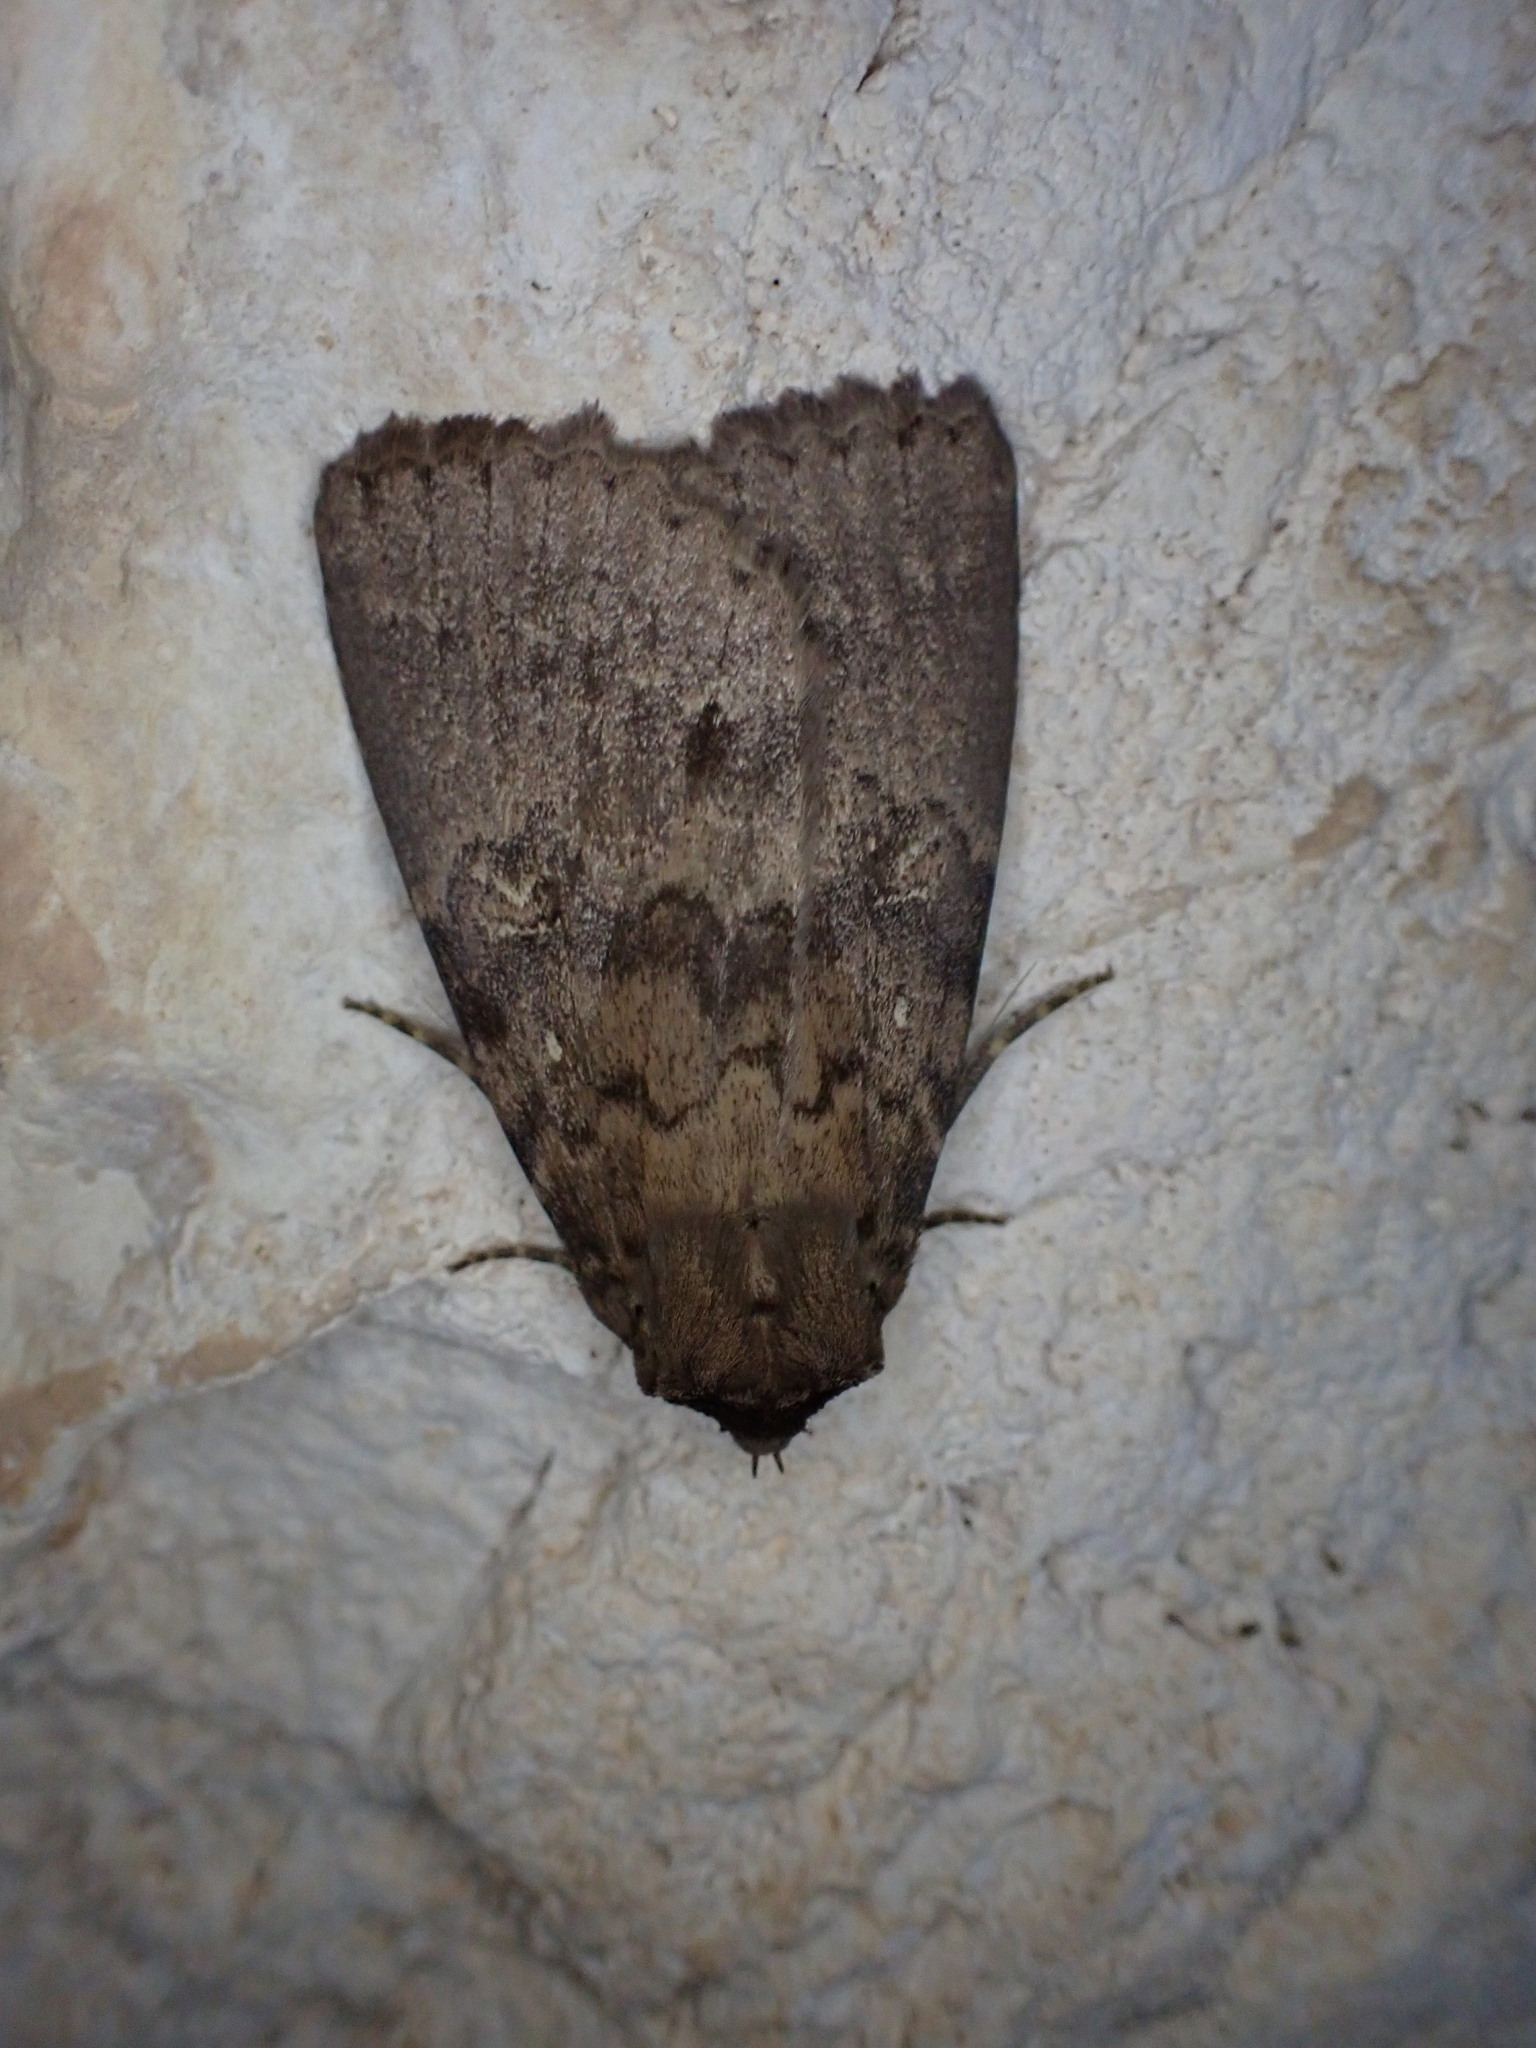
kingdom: Animalia
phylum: Arthropoda
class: Insecta
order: Lepidoptera
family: Erebidae
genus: Apopestes
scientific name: Apopestes spectrum
